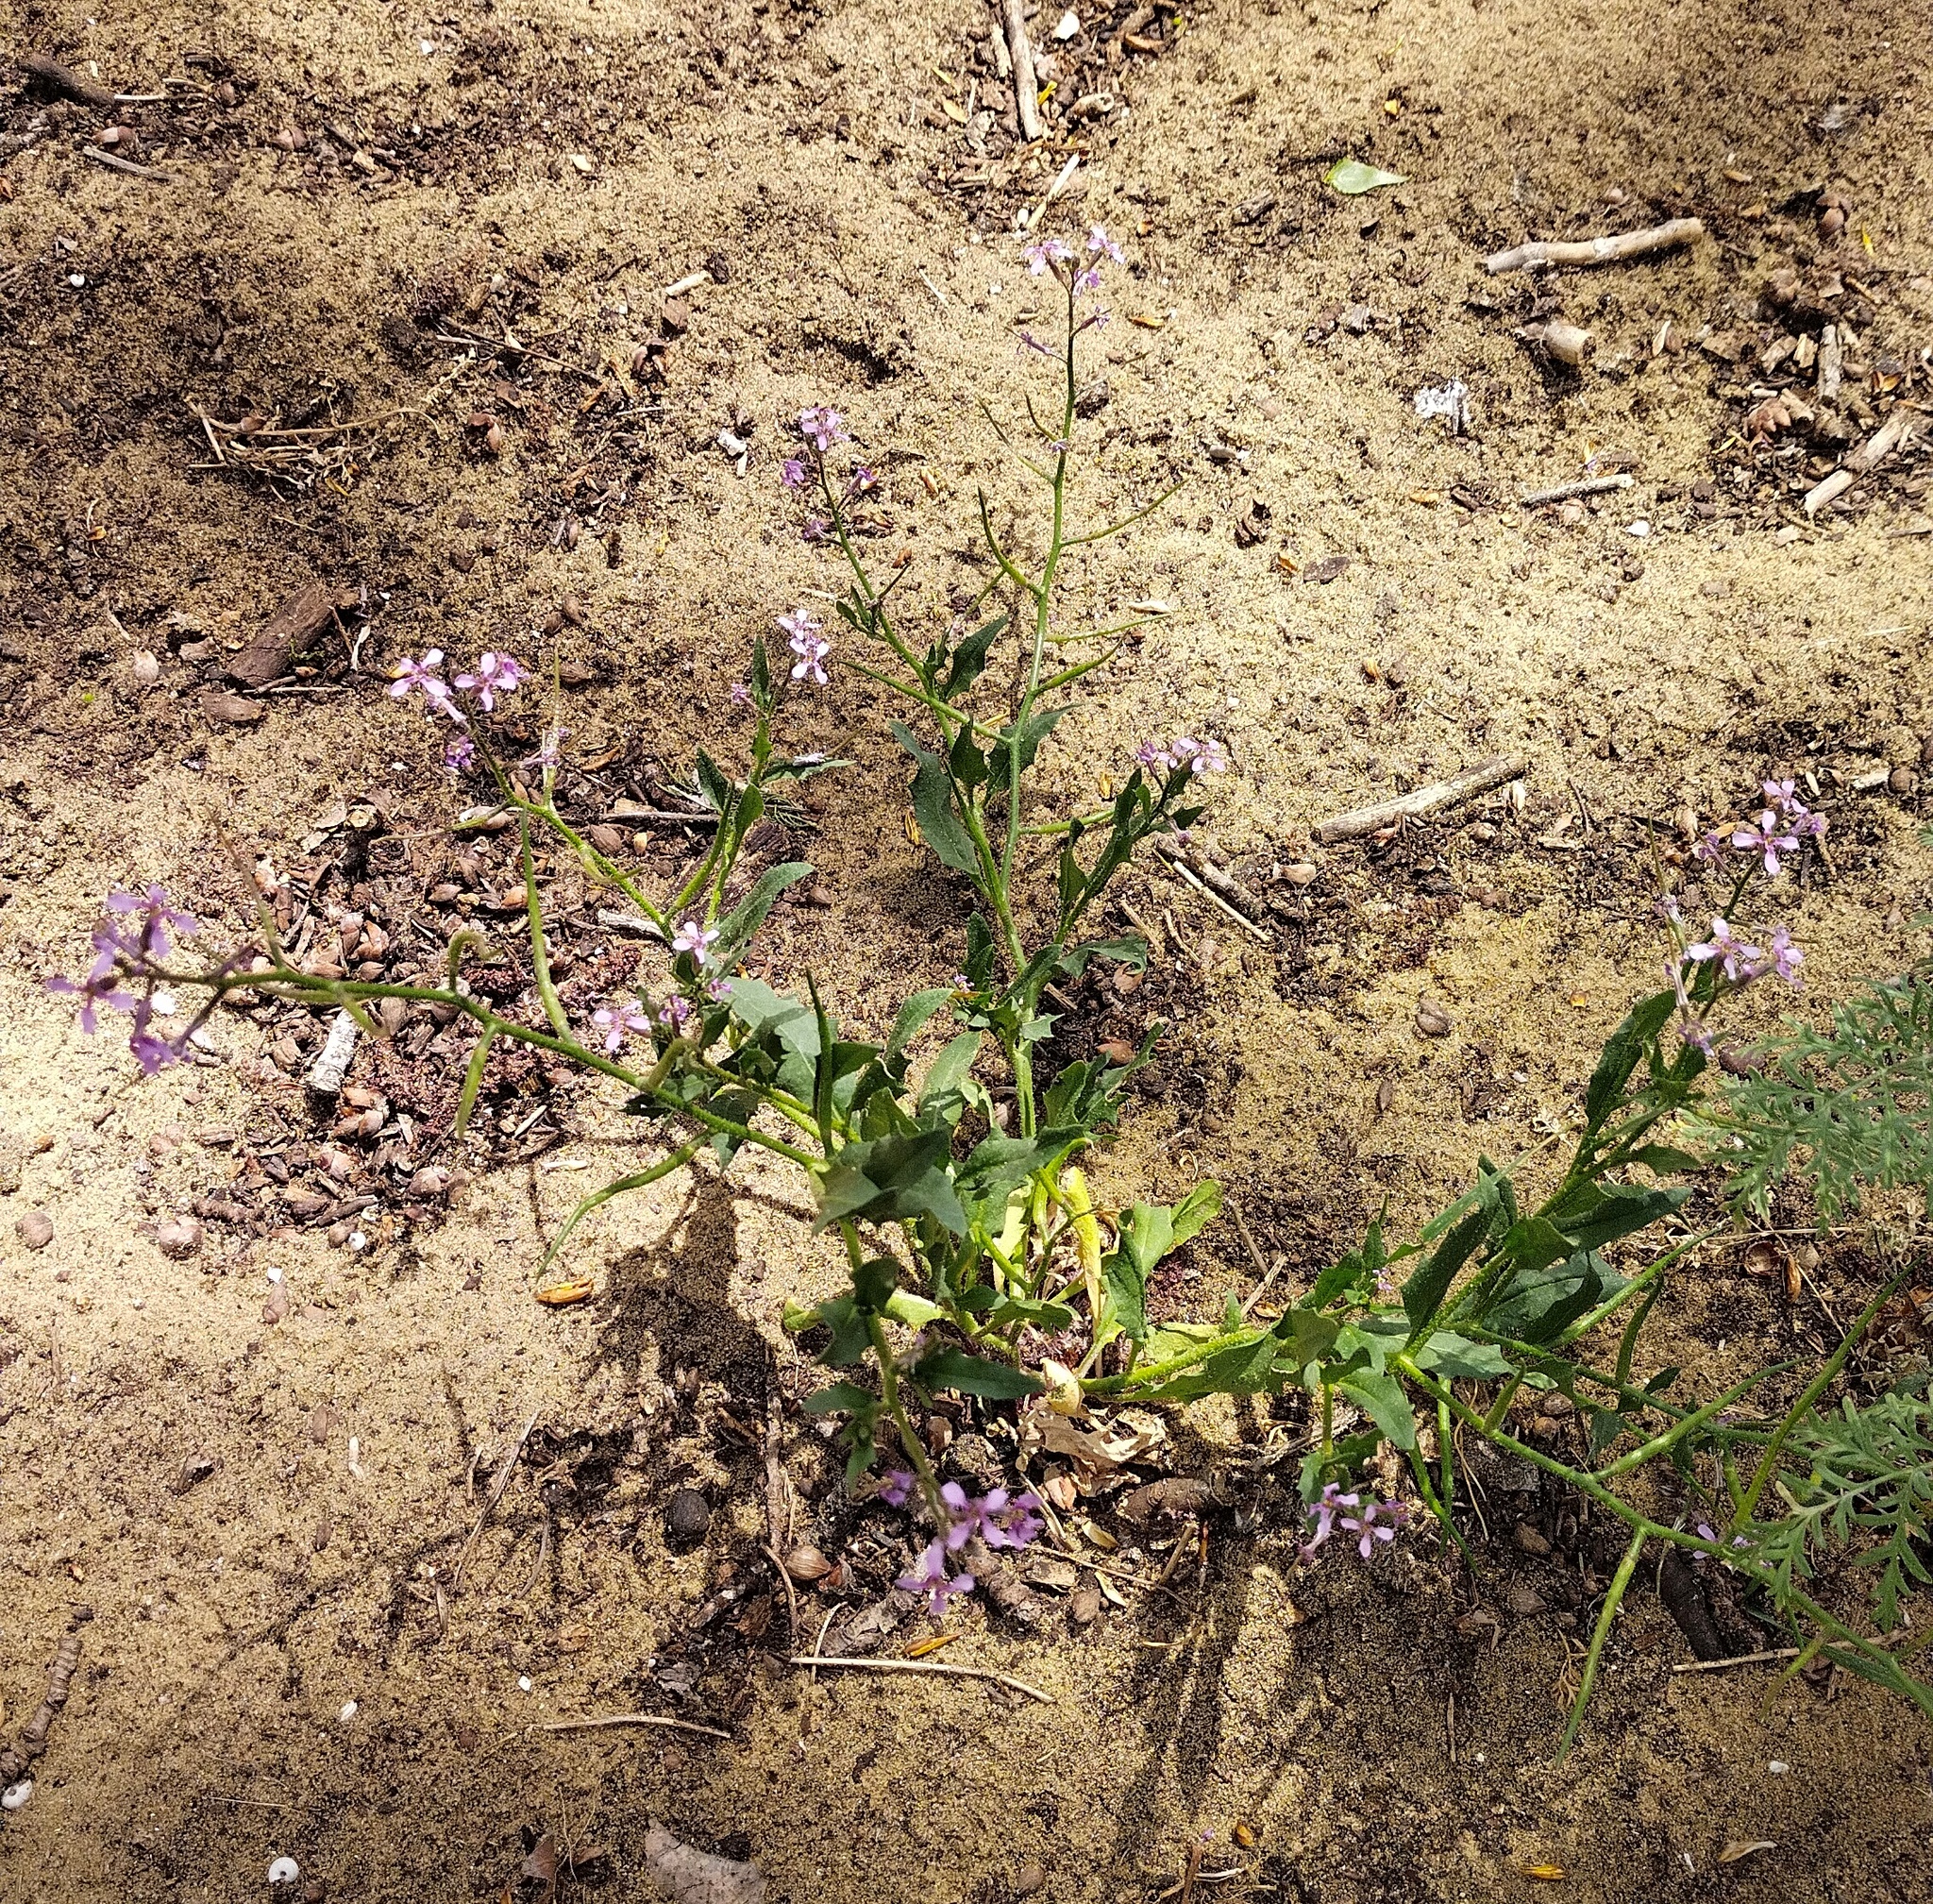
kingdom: Plantae
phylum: Tracheophyta
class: Magnoliopsida
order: Brassicales
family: Brassicaceae
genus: Chorispora
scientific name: Chorispora tenella
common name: Crossflower
